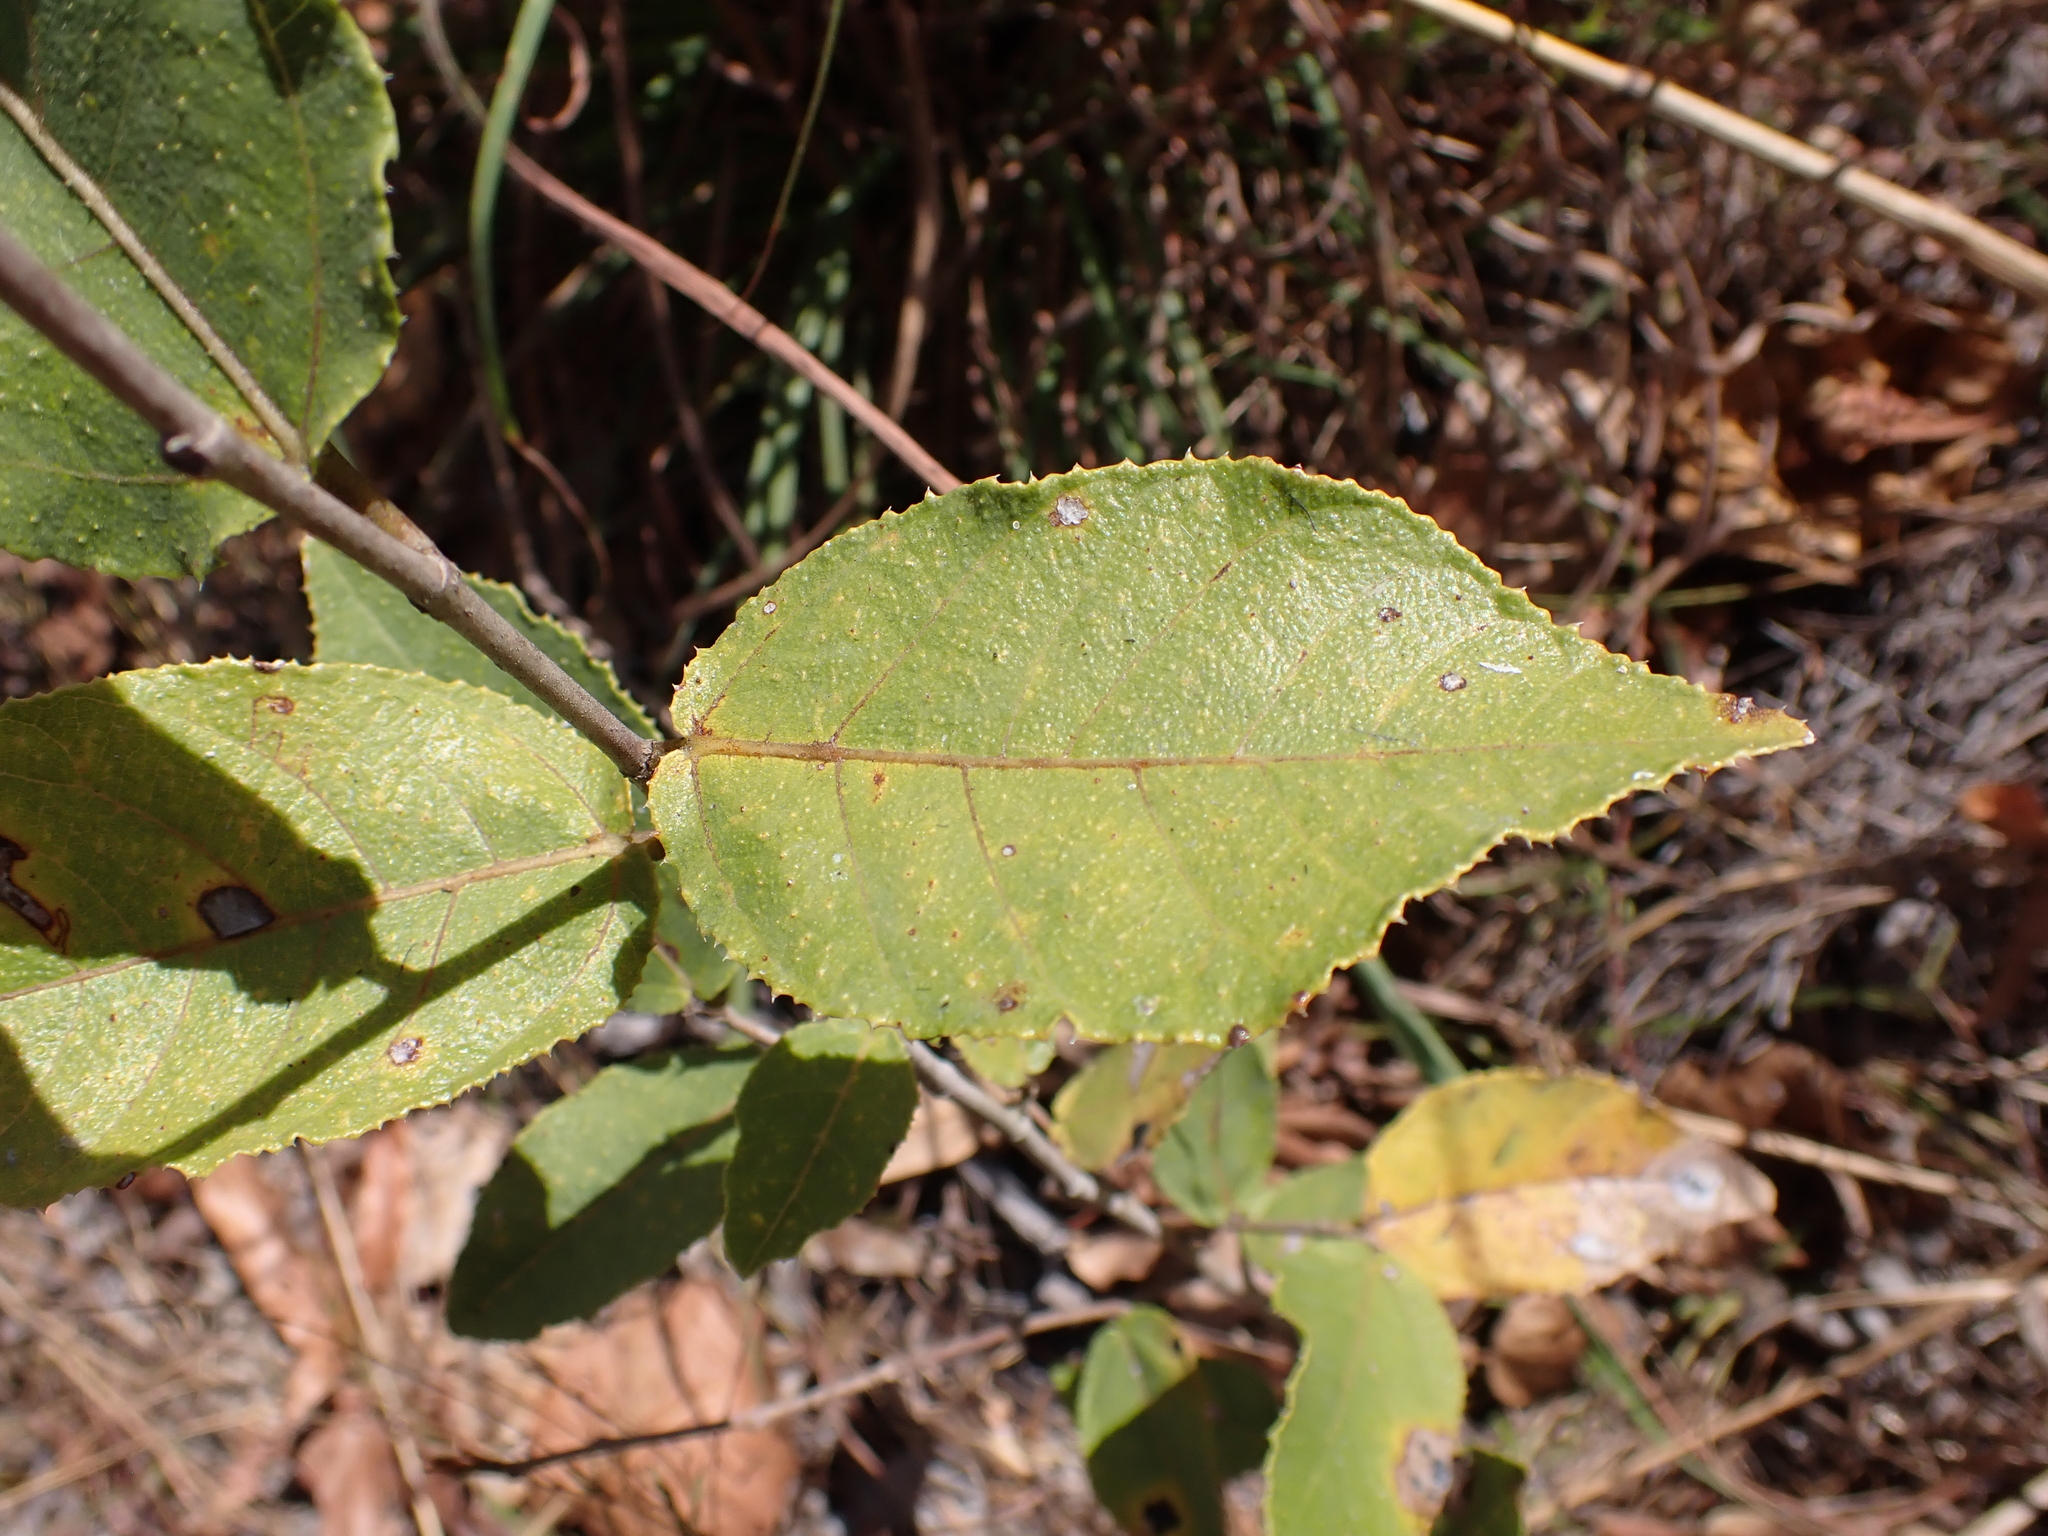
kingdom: Plantae
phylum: Tracheophyta
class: Magnoliopsida
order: Rosales
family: Moraceae
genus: Ficus
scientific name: Ficus opposita
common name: Figwood
